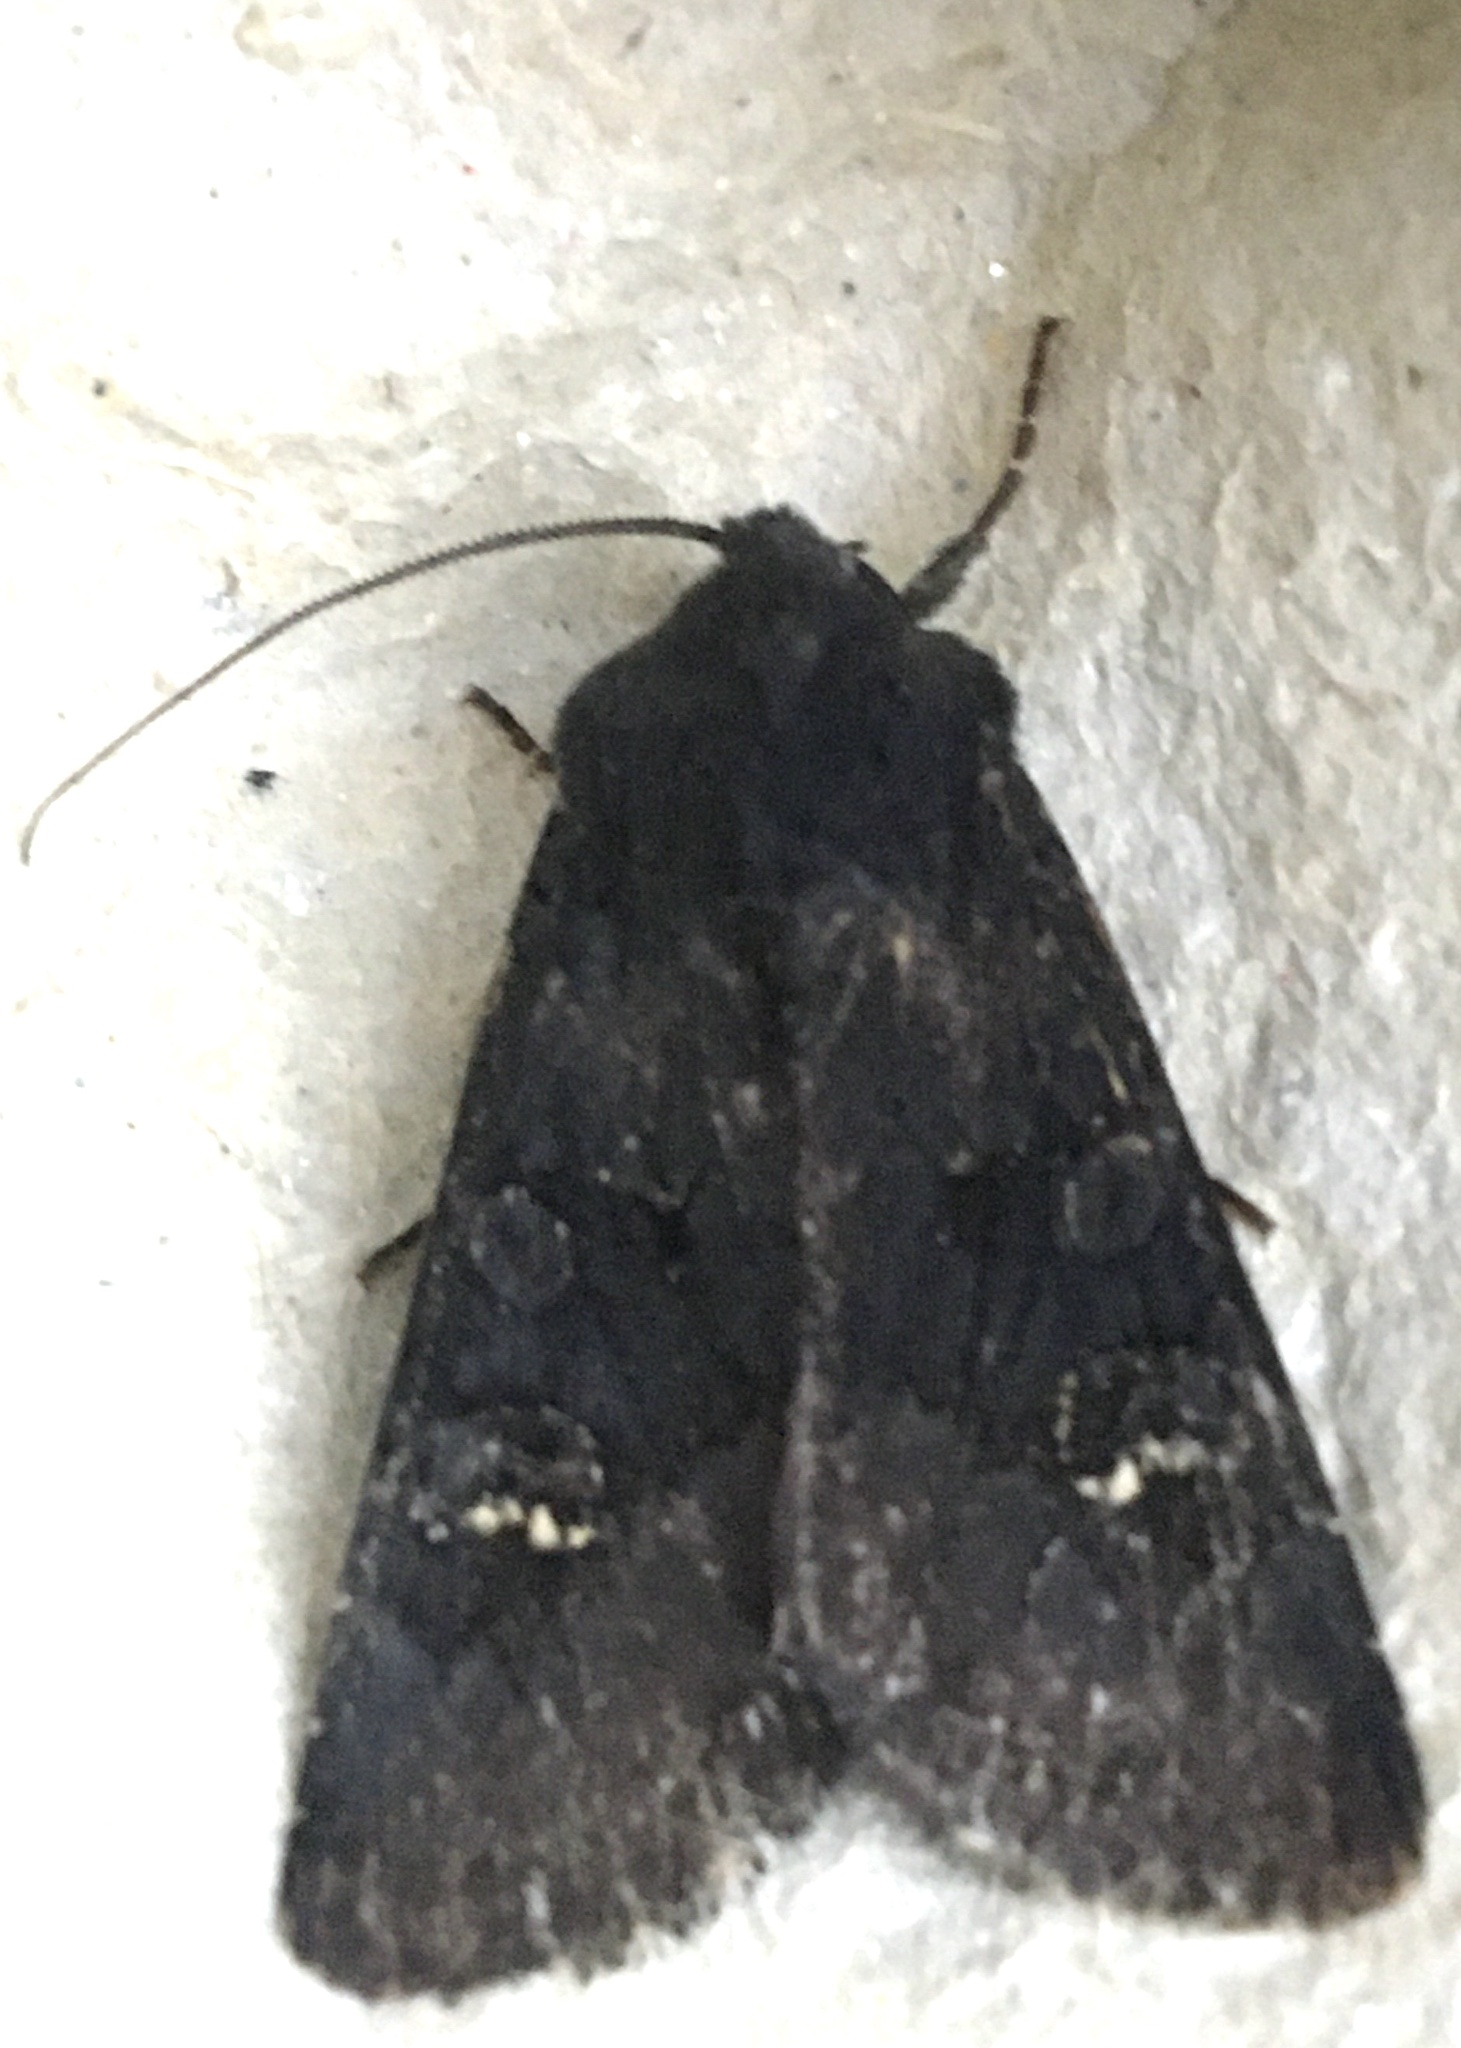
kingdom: Animalia
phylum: Arthropoda
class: Insecta
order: Lepidoptera
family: Noctuidae
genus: Aporophyla
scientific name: Aporophyla nigra
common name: Black rustic
